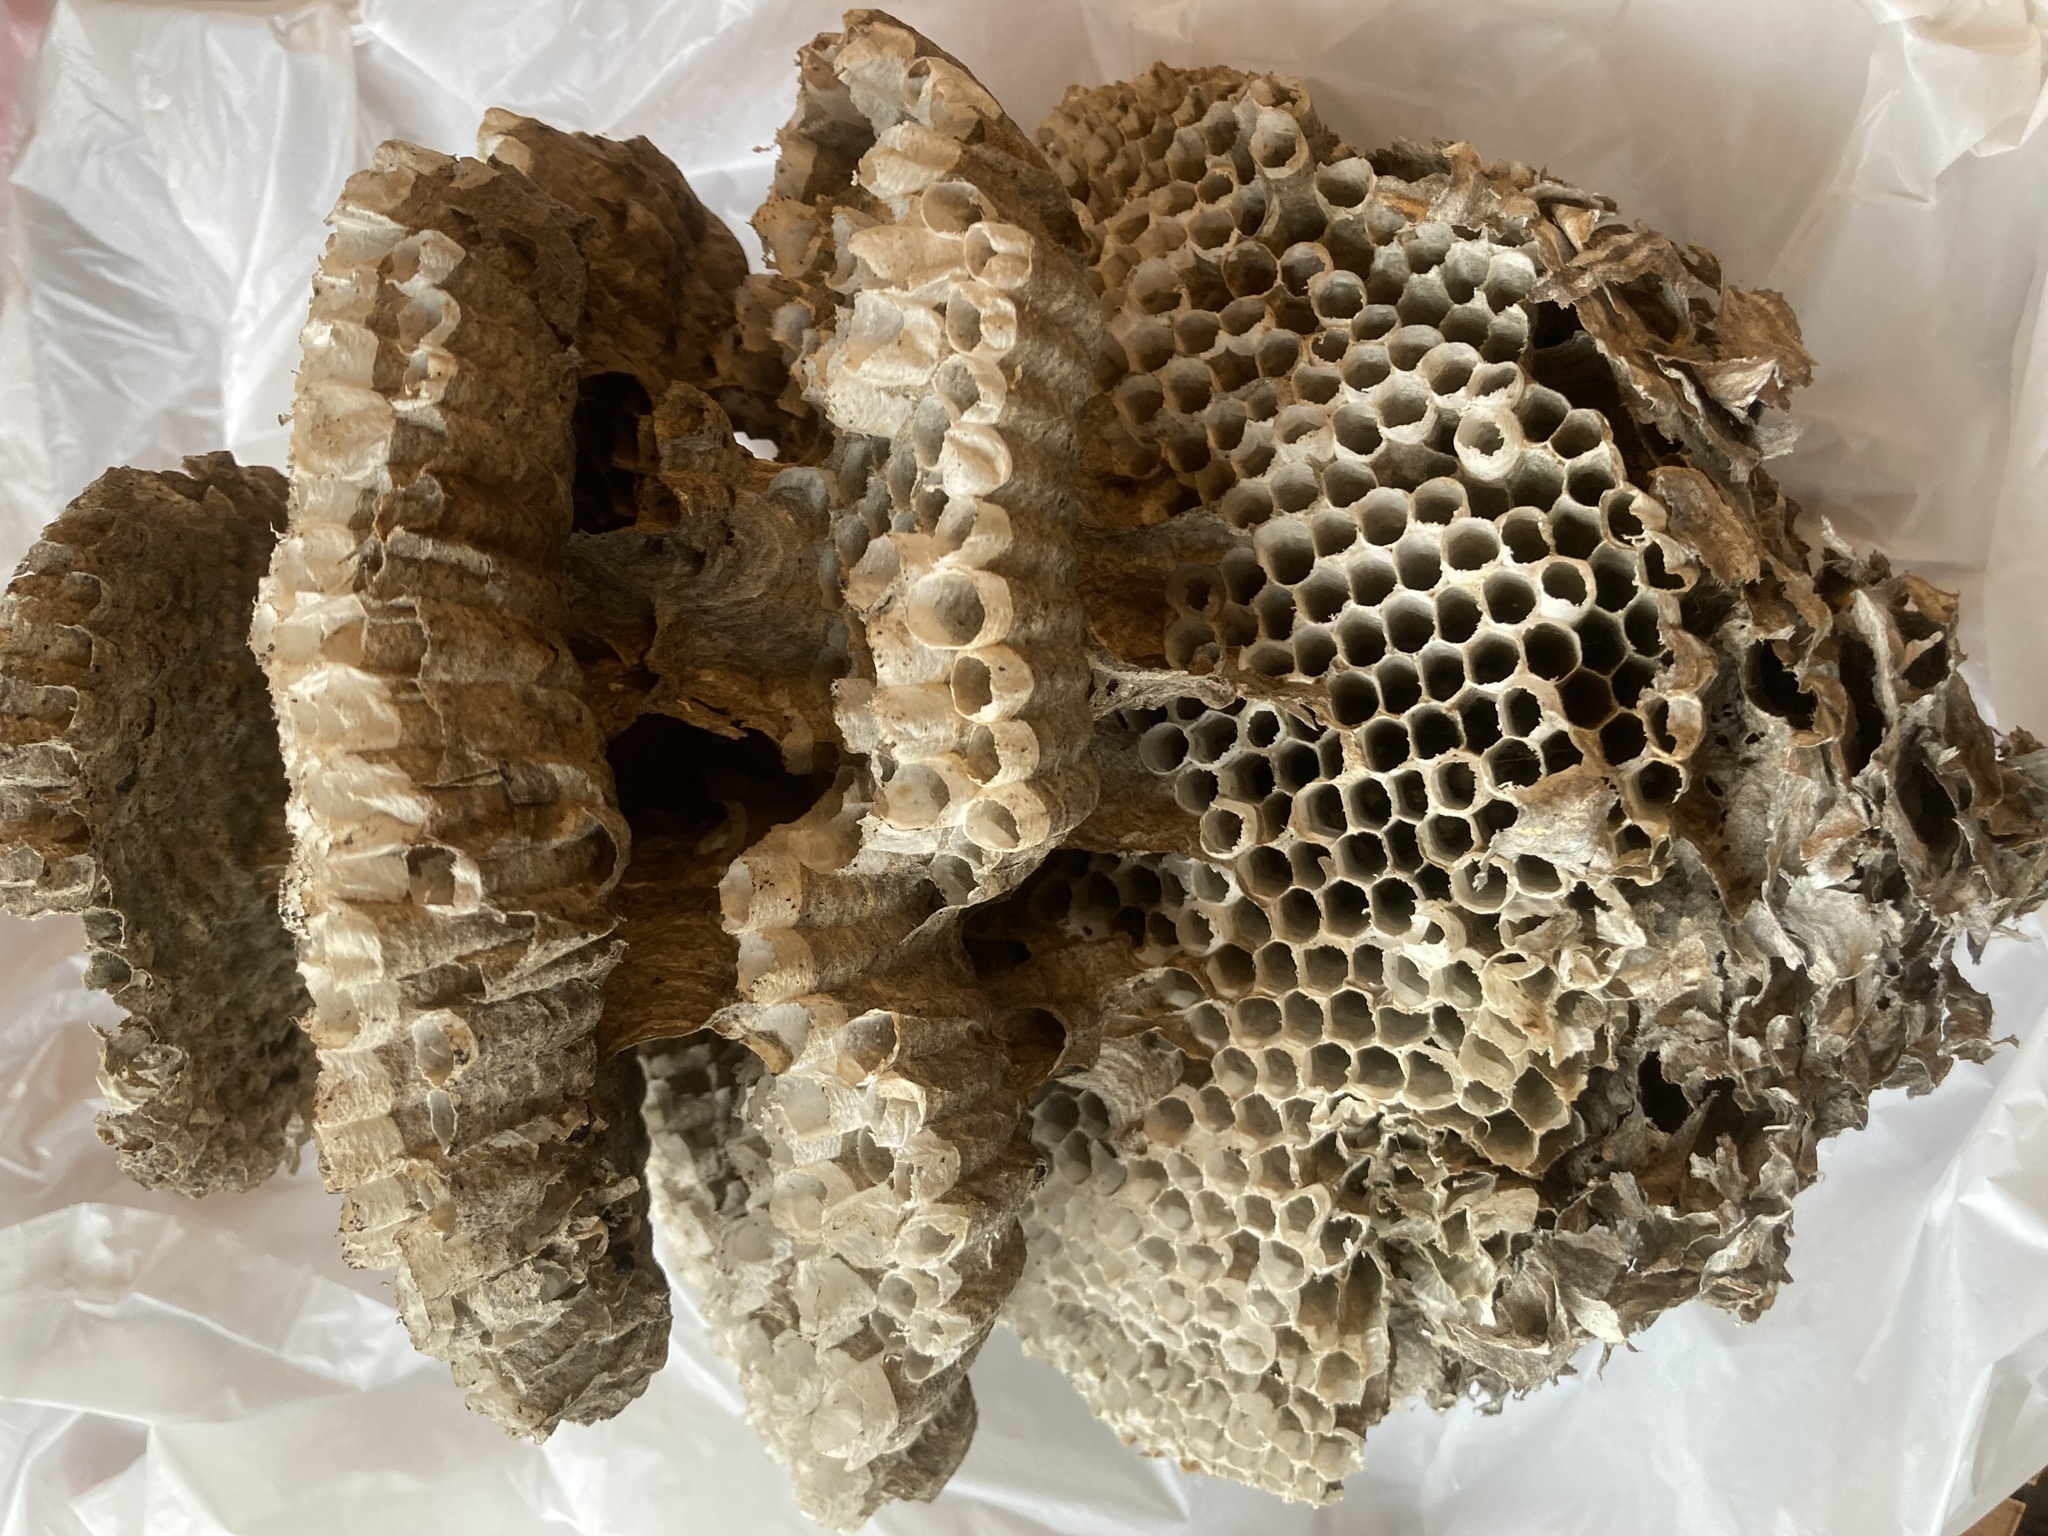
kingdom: Animalia
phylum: Arthropoda
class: Insecta
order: Hymenoptera
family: Vespidae
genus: Dolichovespula
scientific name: Dolichovespula maculata
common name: Bald-faced hornet
